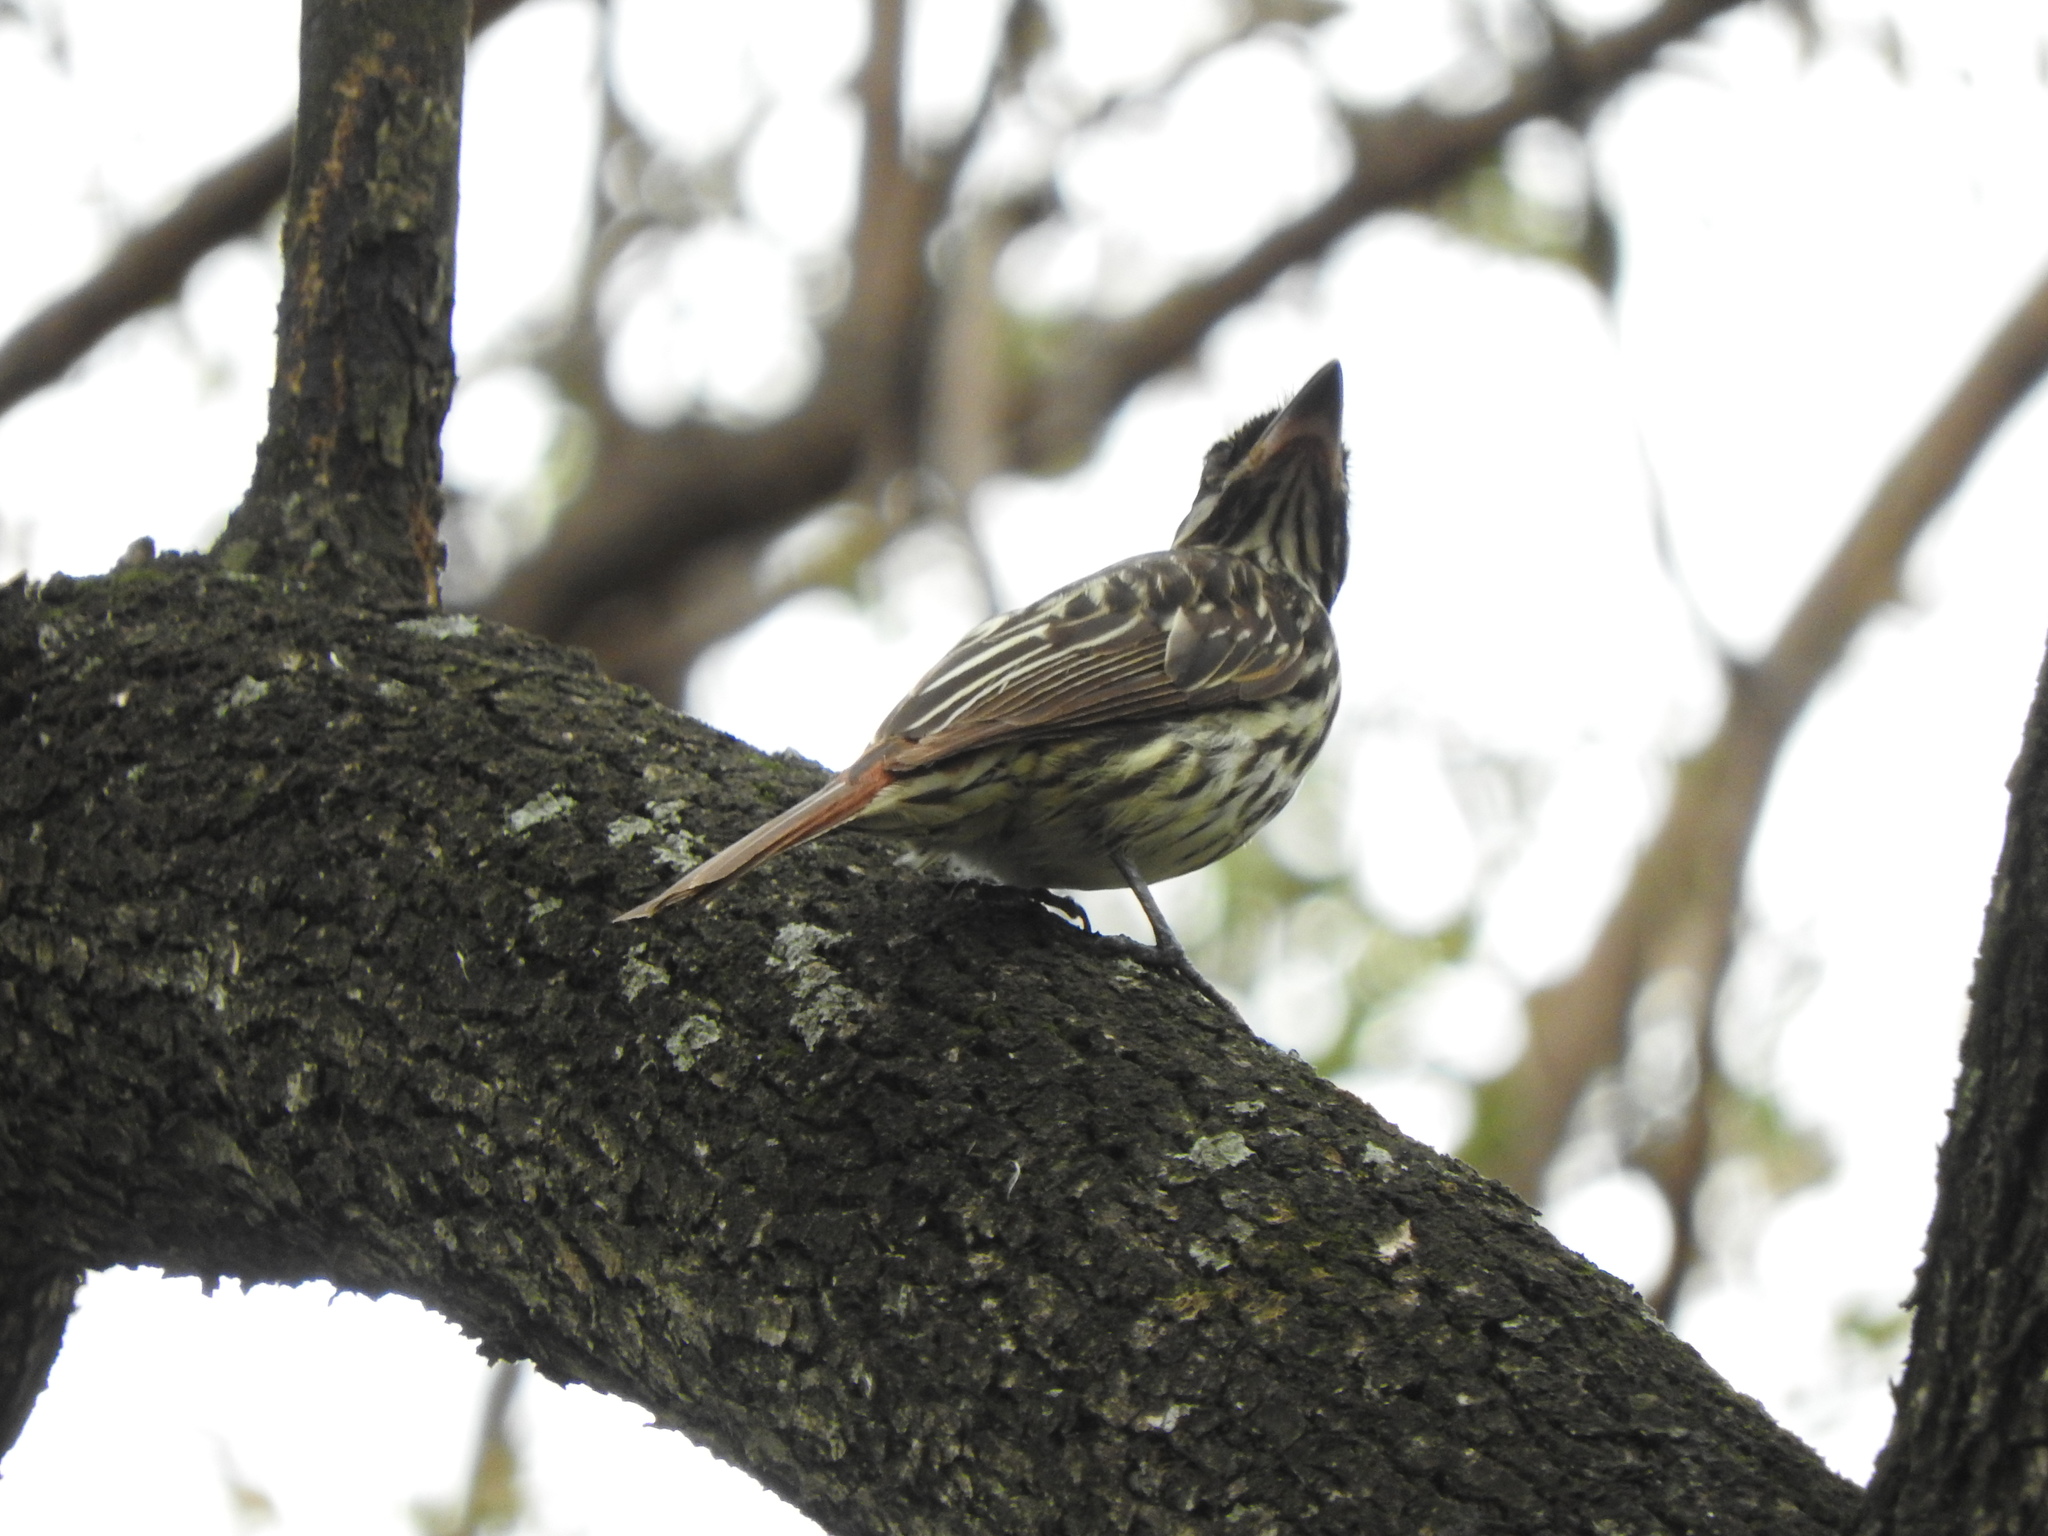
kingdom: Animalia
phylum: Chordata
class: Aves
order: Passeriformes
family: Tyrannidae
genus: Myiodynastes
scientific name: Myiodynastes maculatus
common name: Streaked flycatcher
